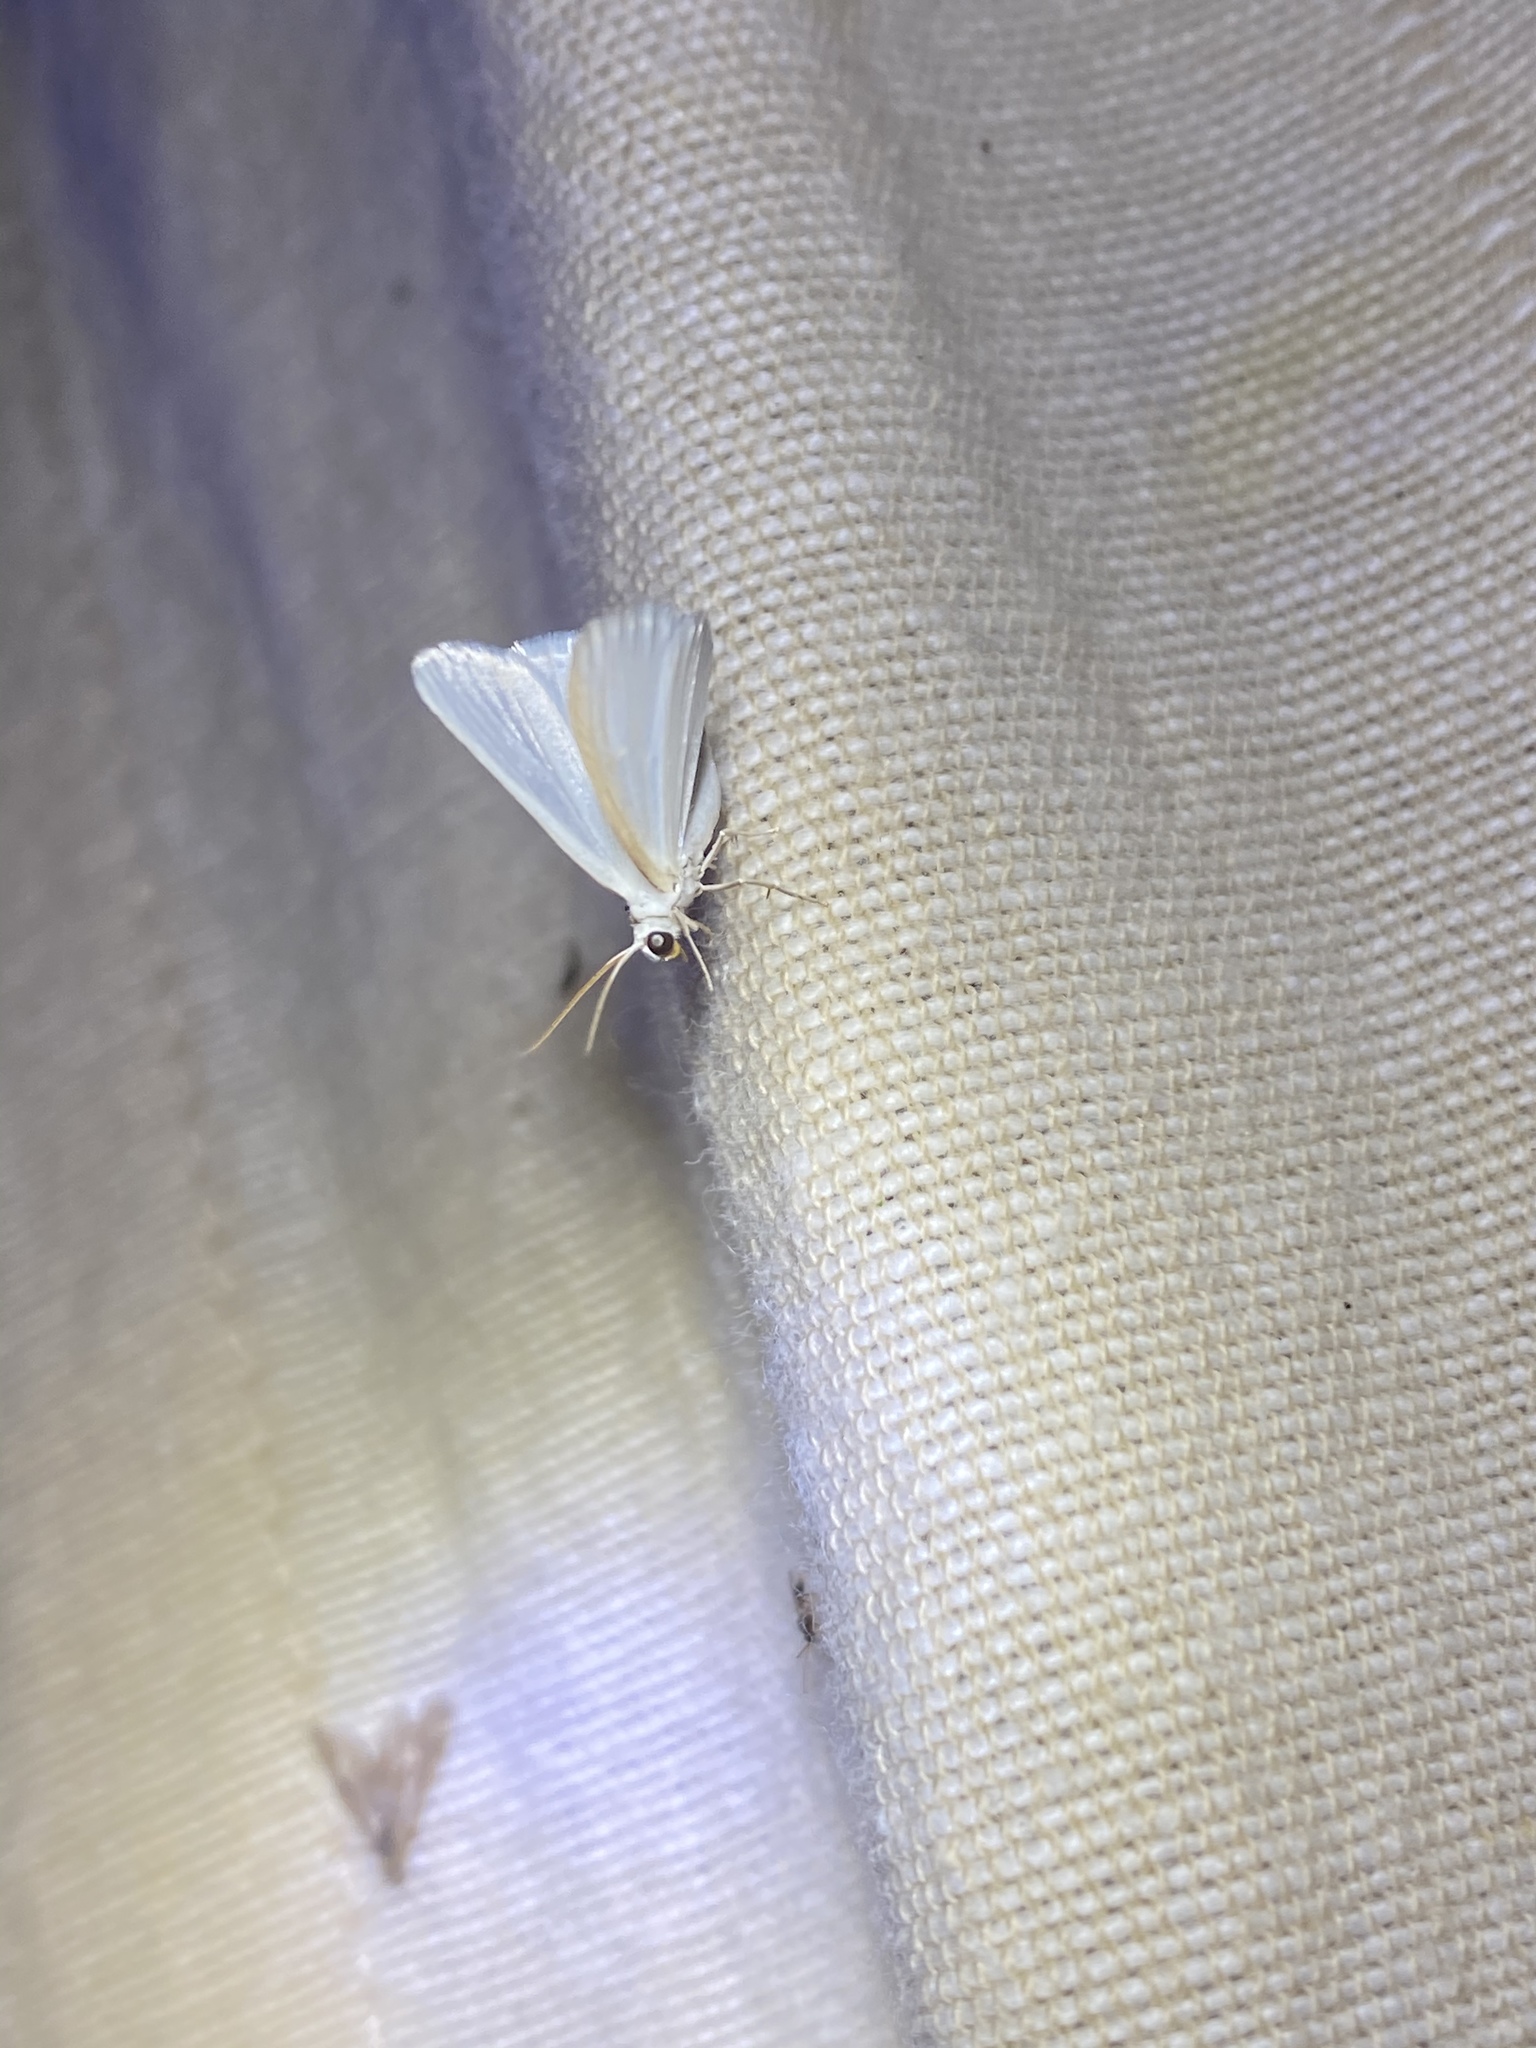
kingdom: Animalia
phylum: Arthropoda
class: Insecta
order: Lepidoptera
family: Geometridae
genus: Lomographa
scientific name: Lomographa vestaliata
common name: White spring moth
